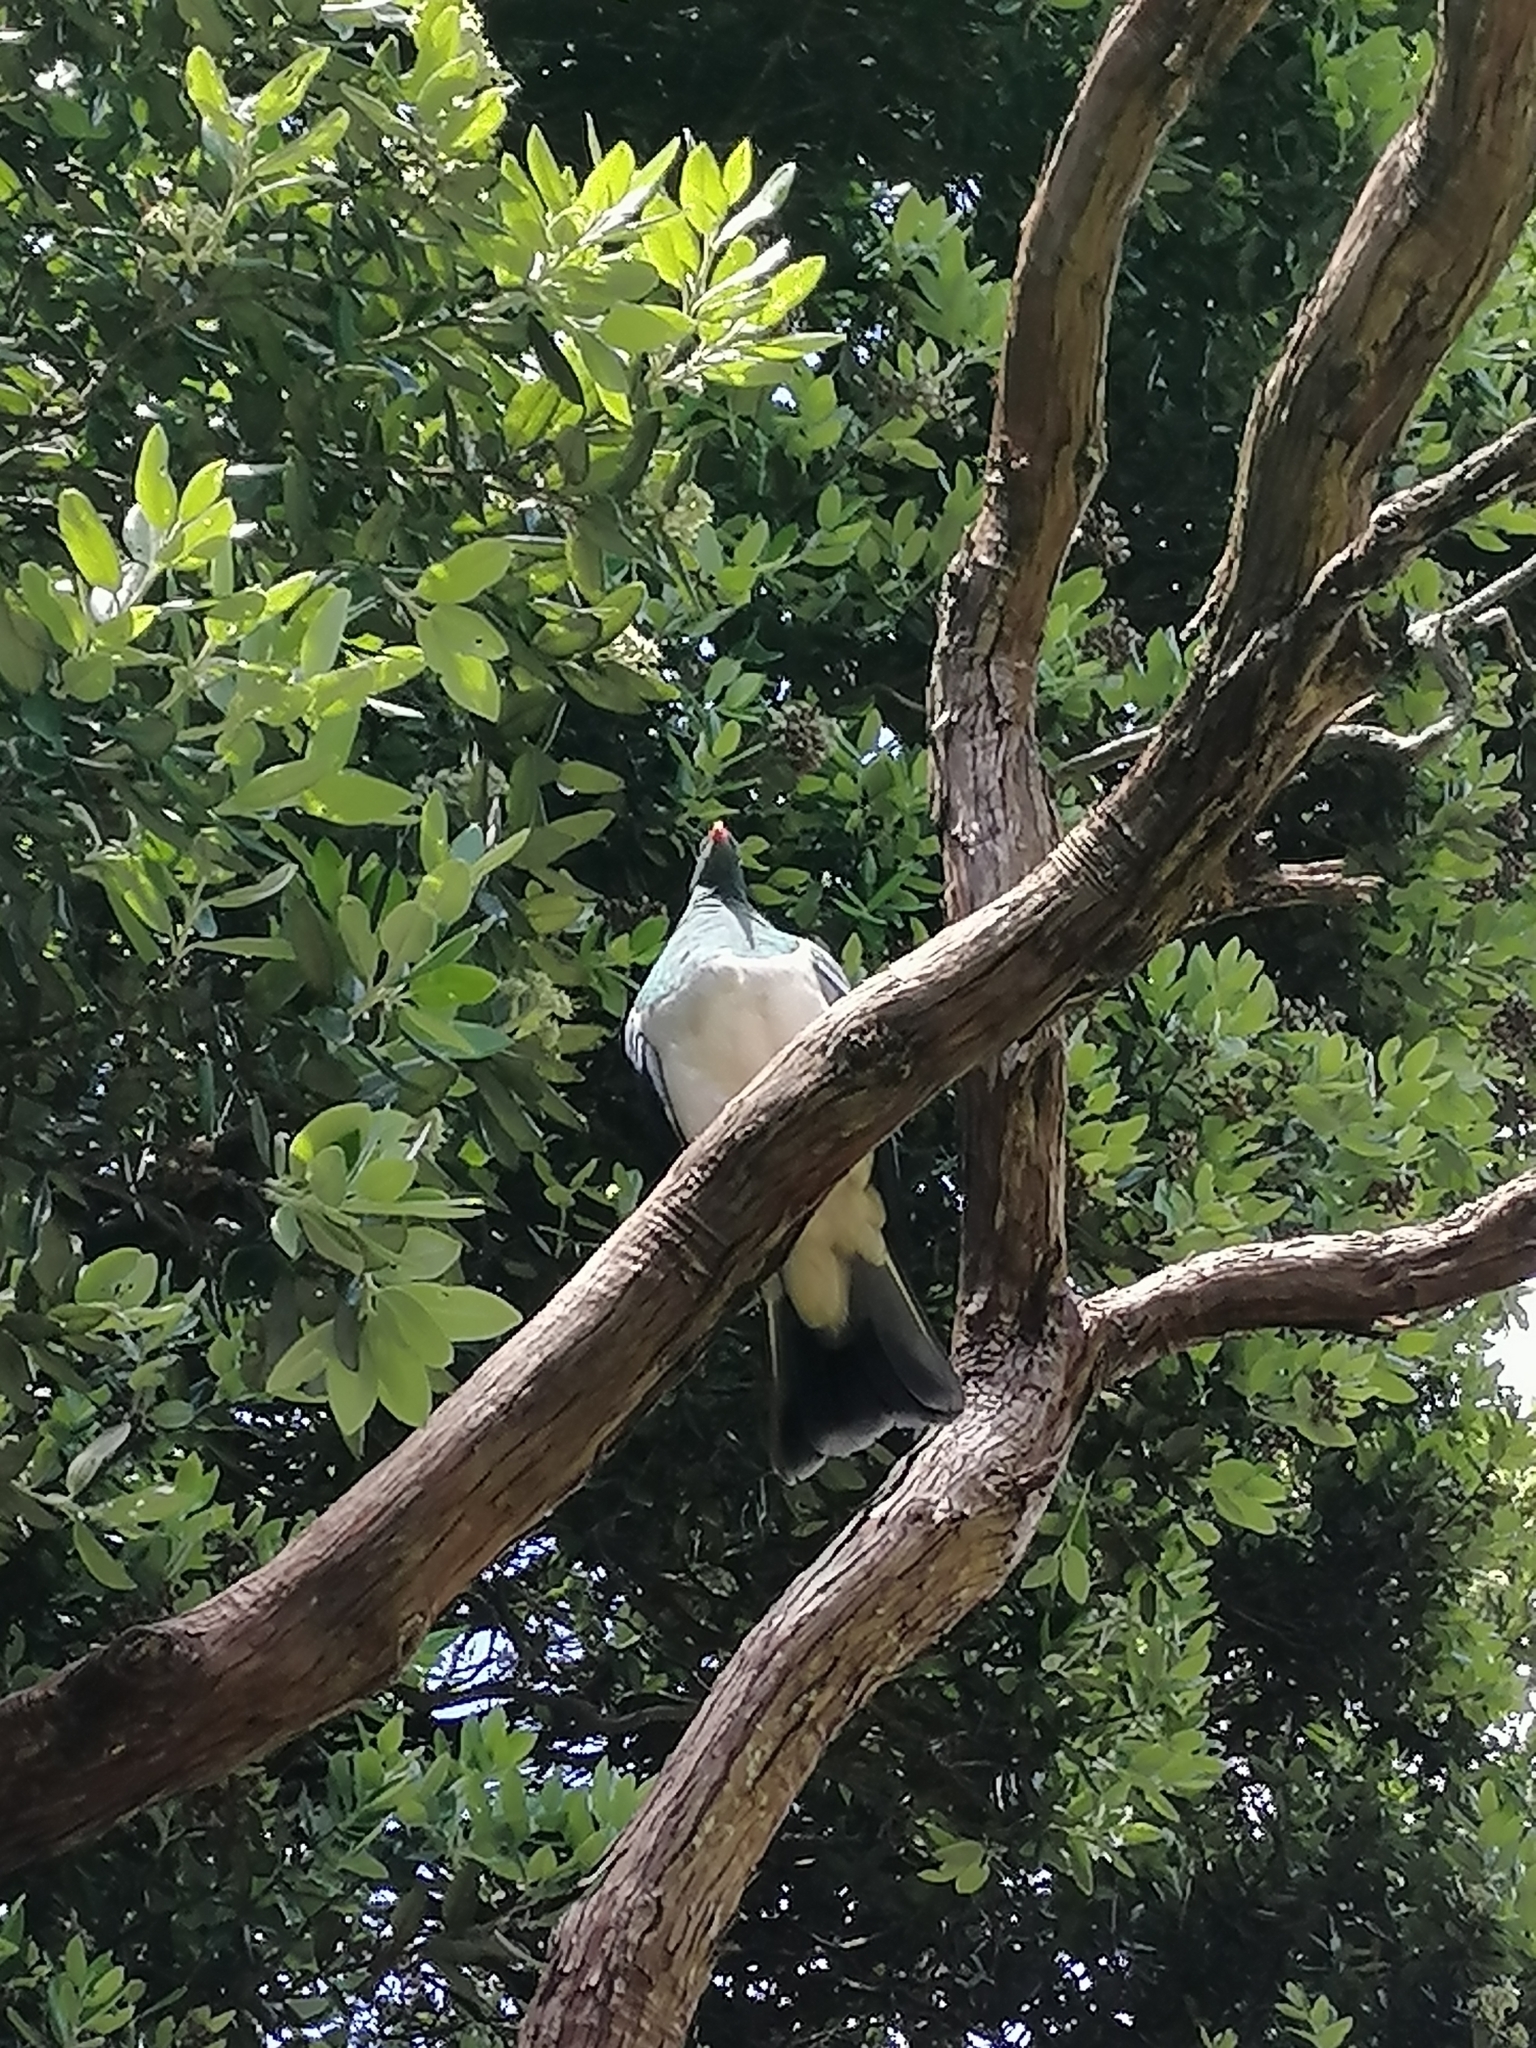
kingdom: Animalia
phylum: Chordata
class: Aves
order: Columbiformes
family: Columbidae
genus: Hemiphaga
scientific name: Hemiphaga novaeseelandiae
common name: New zealand pigeon
